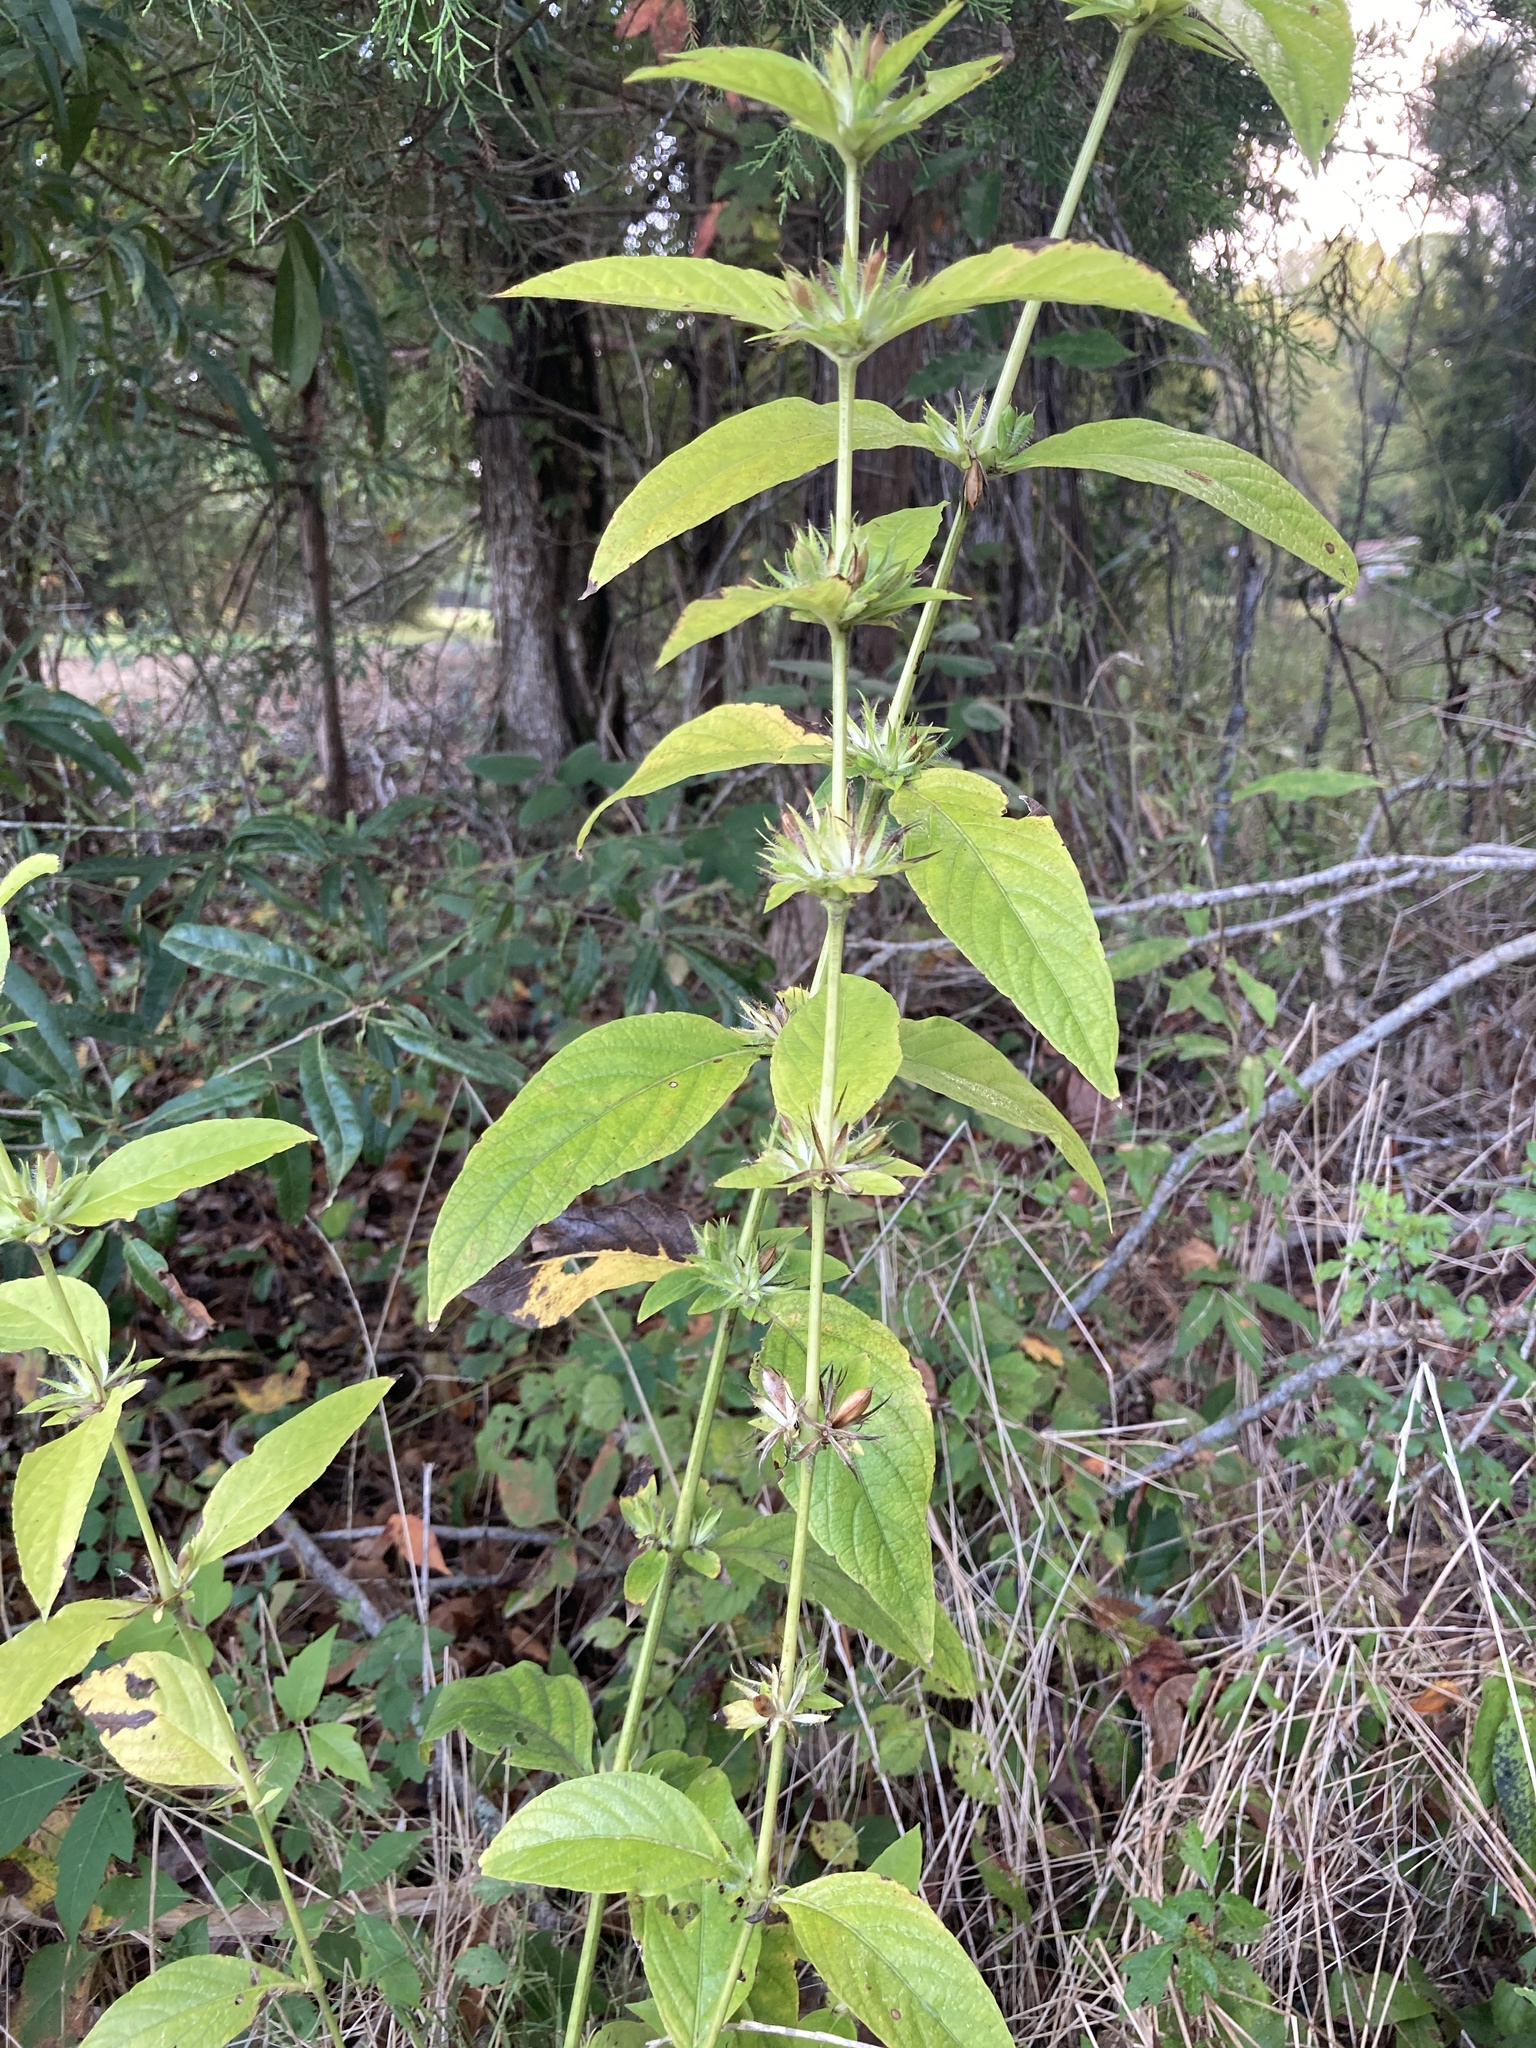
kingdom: Plantae
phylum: Tracheophyta
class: Magnoliopsida
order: Lamiales
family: Acanthaceae
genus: Ruellia
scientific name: Ruellia strepens
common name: Limestone wild petunia
